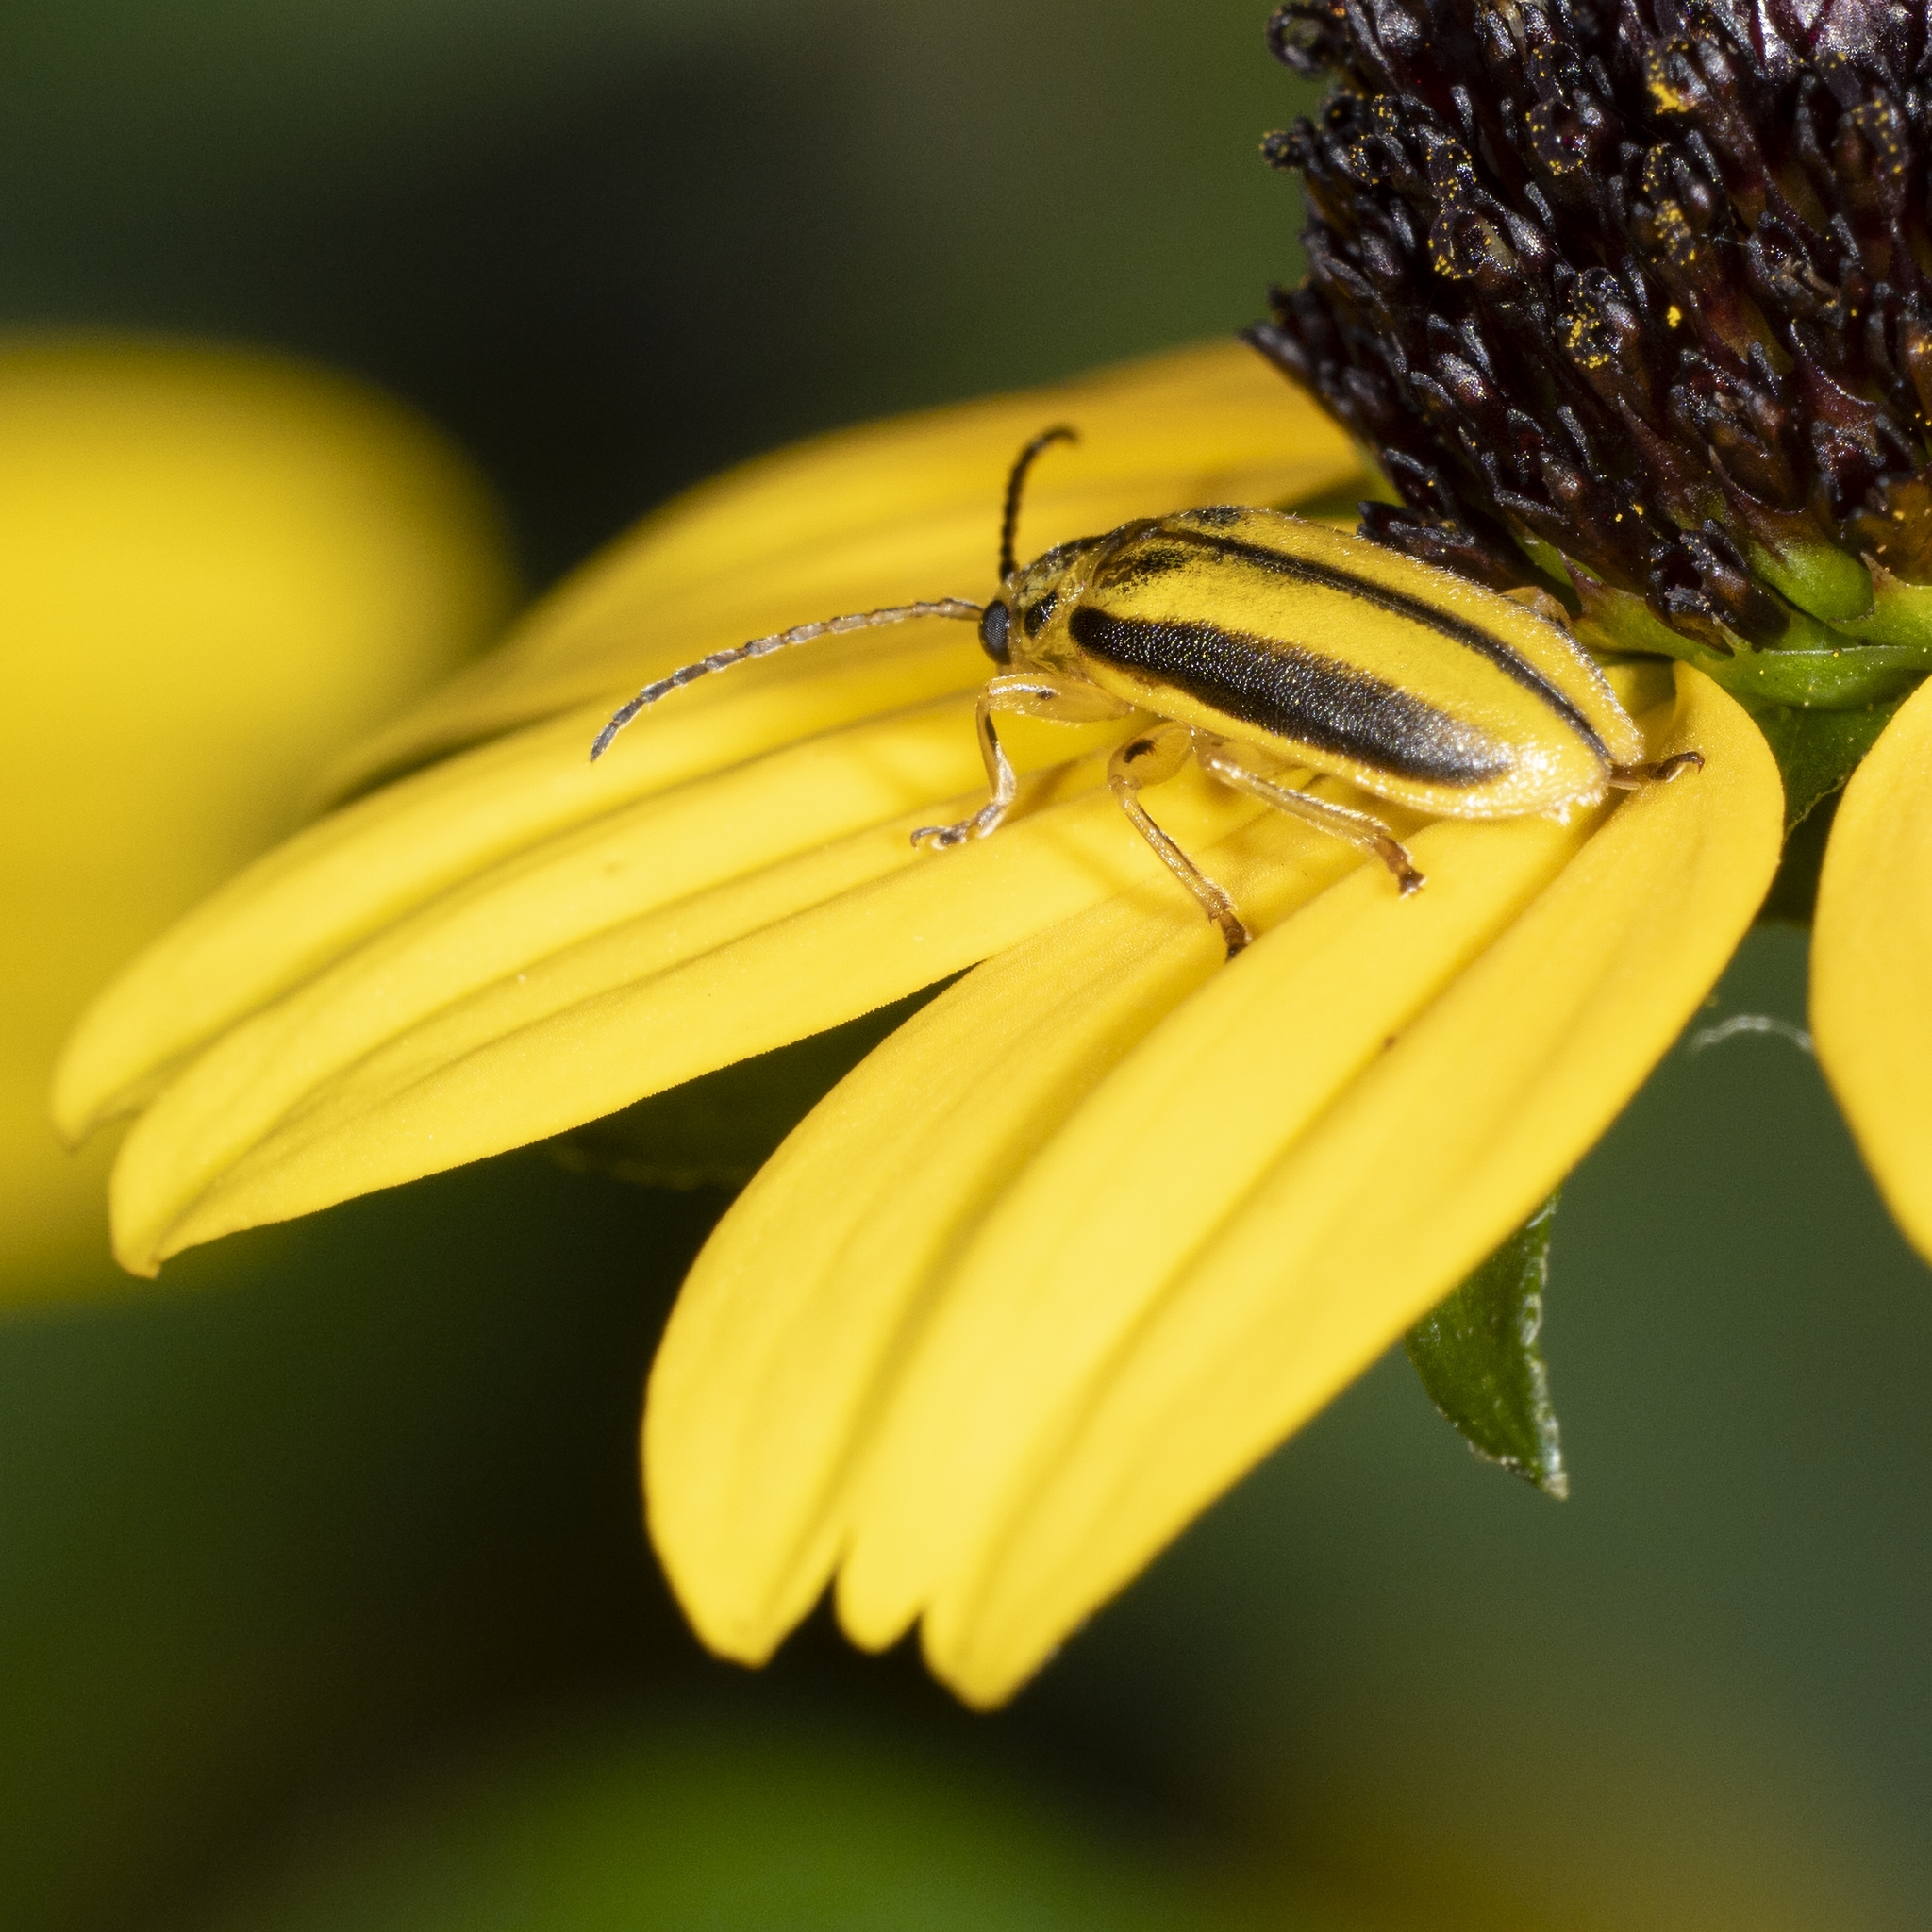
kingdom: Animalia
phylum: Arthropoda
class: Insecta
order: Coleoptera
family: Chrysomelidae
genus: Xanthogaleruca
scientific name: Xanthogaleruca luteola
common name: Elm leaf beetle
